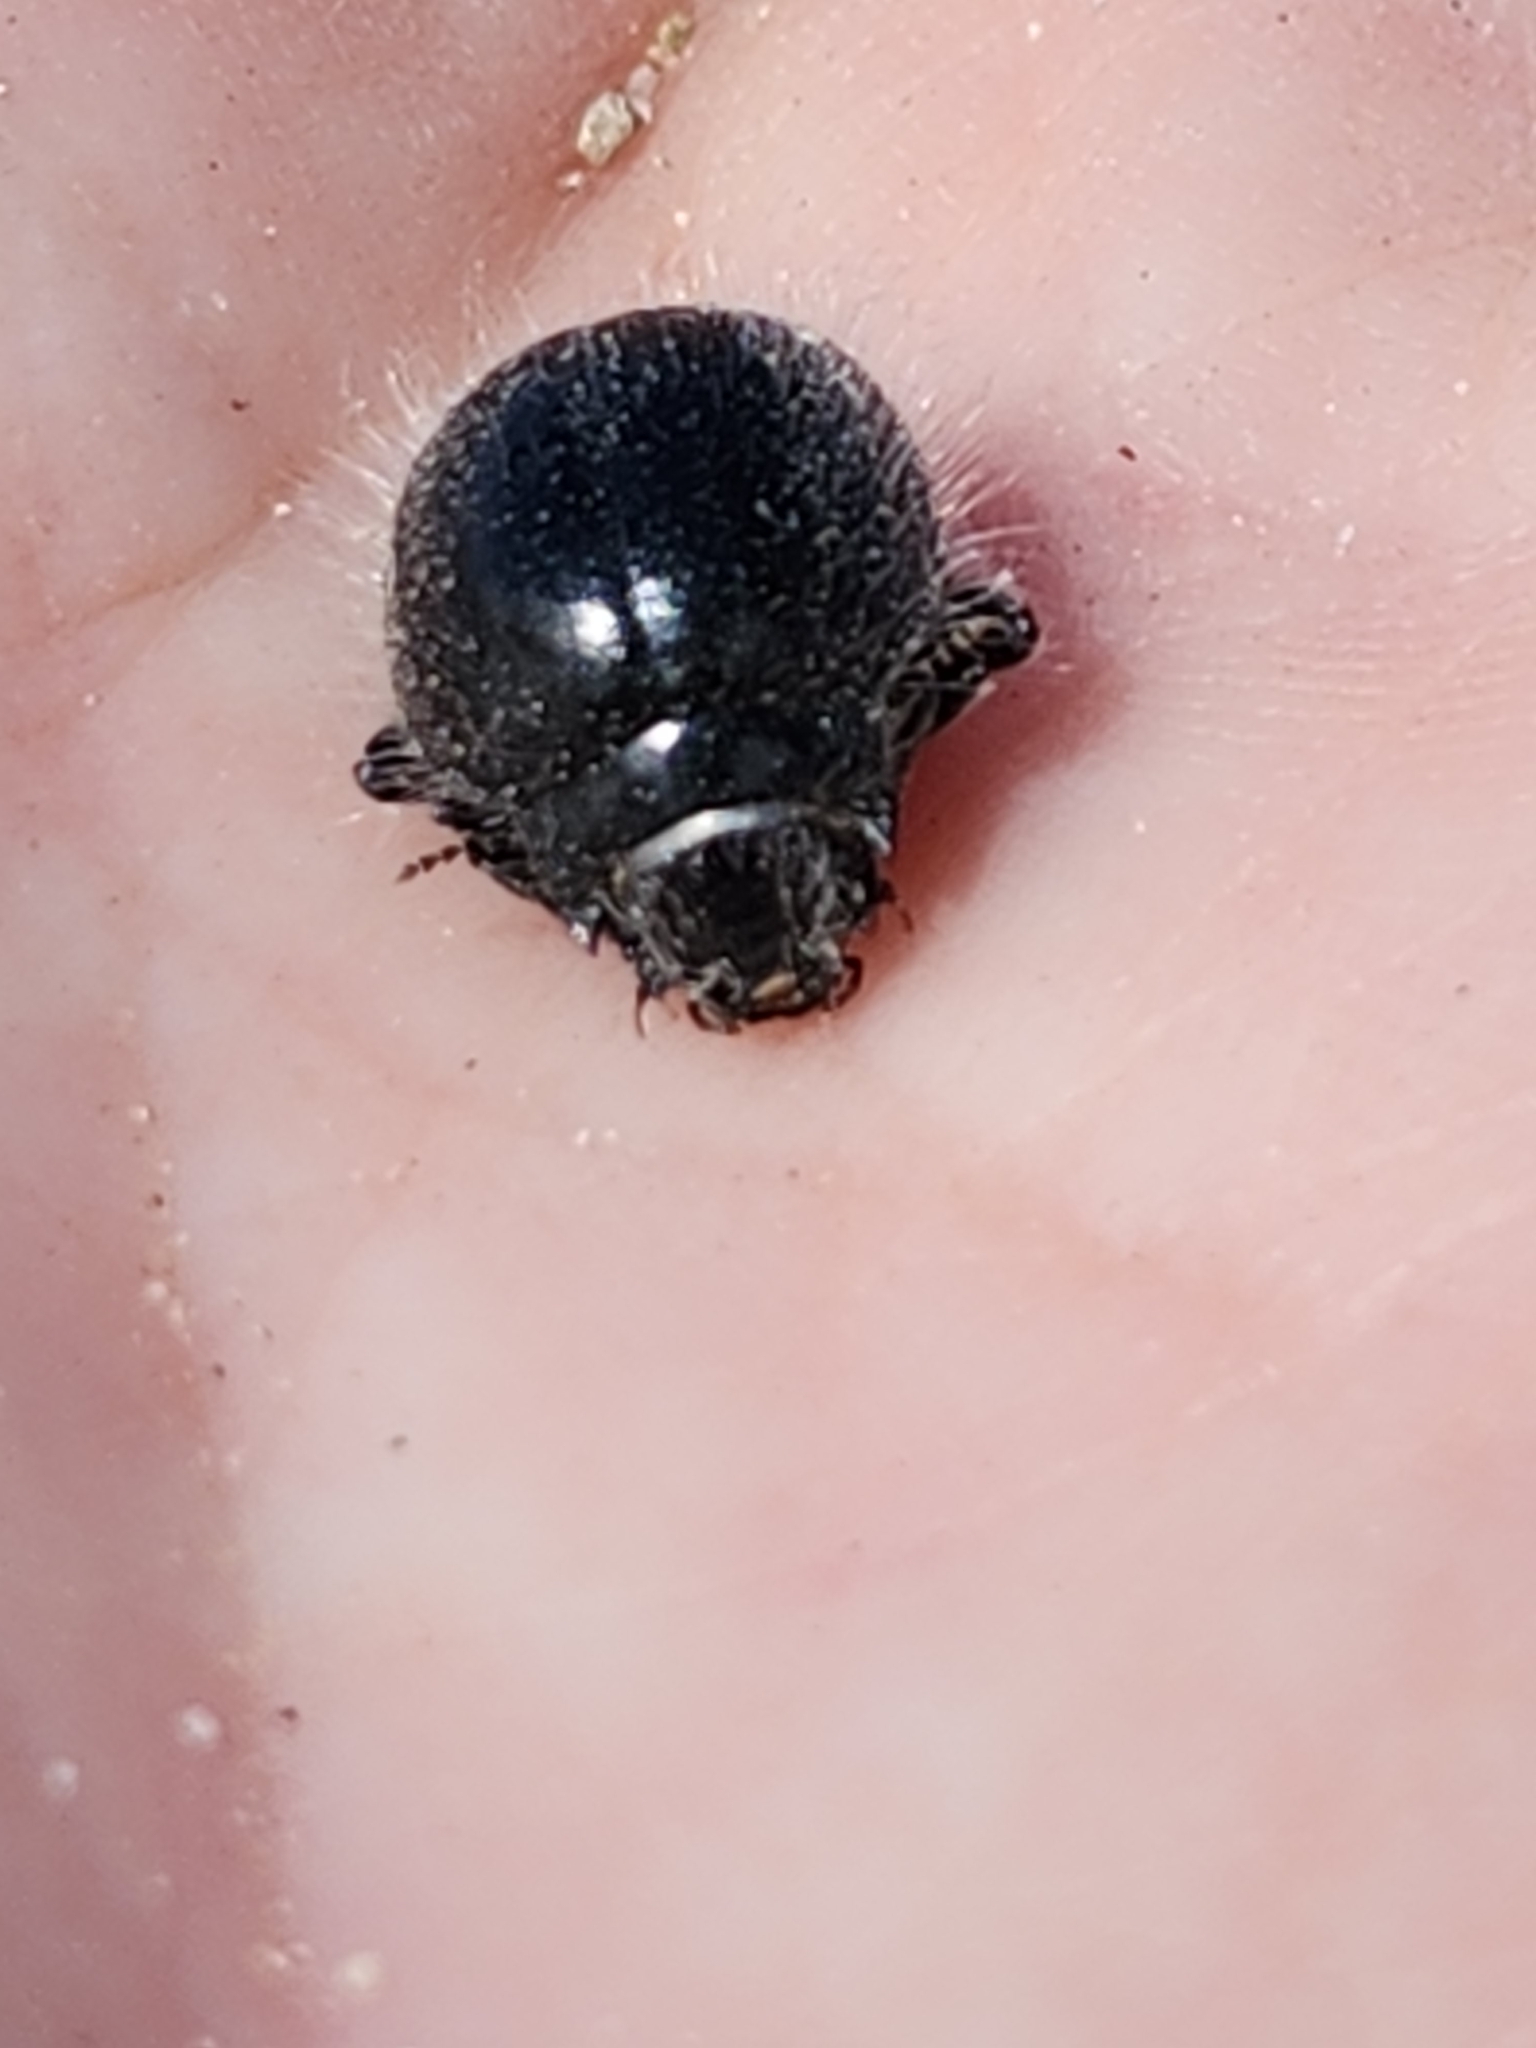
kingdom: Animalia
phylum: Arthropoda
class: Insecta
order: Coleoptera
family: Tenebrionidae
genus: Edrotes
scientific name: Edrotes ventricosus
